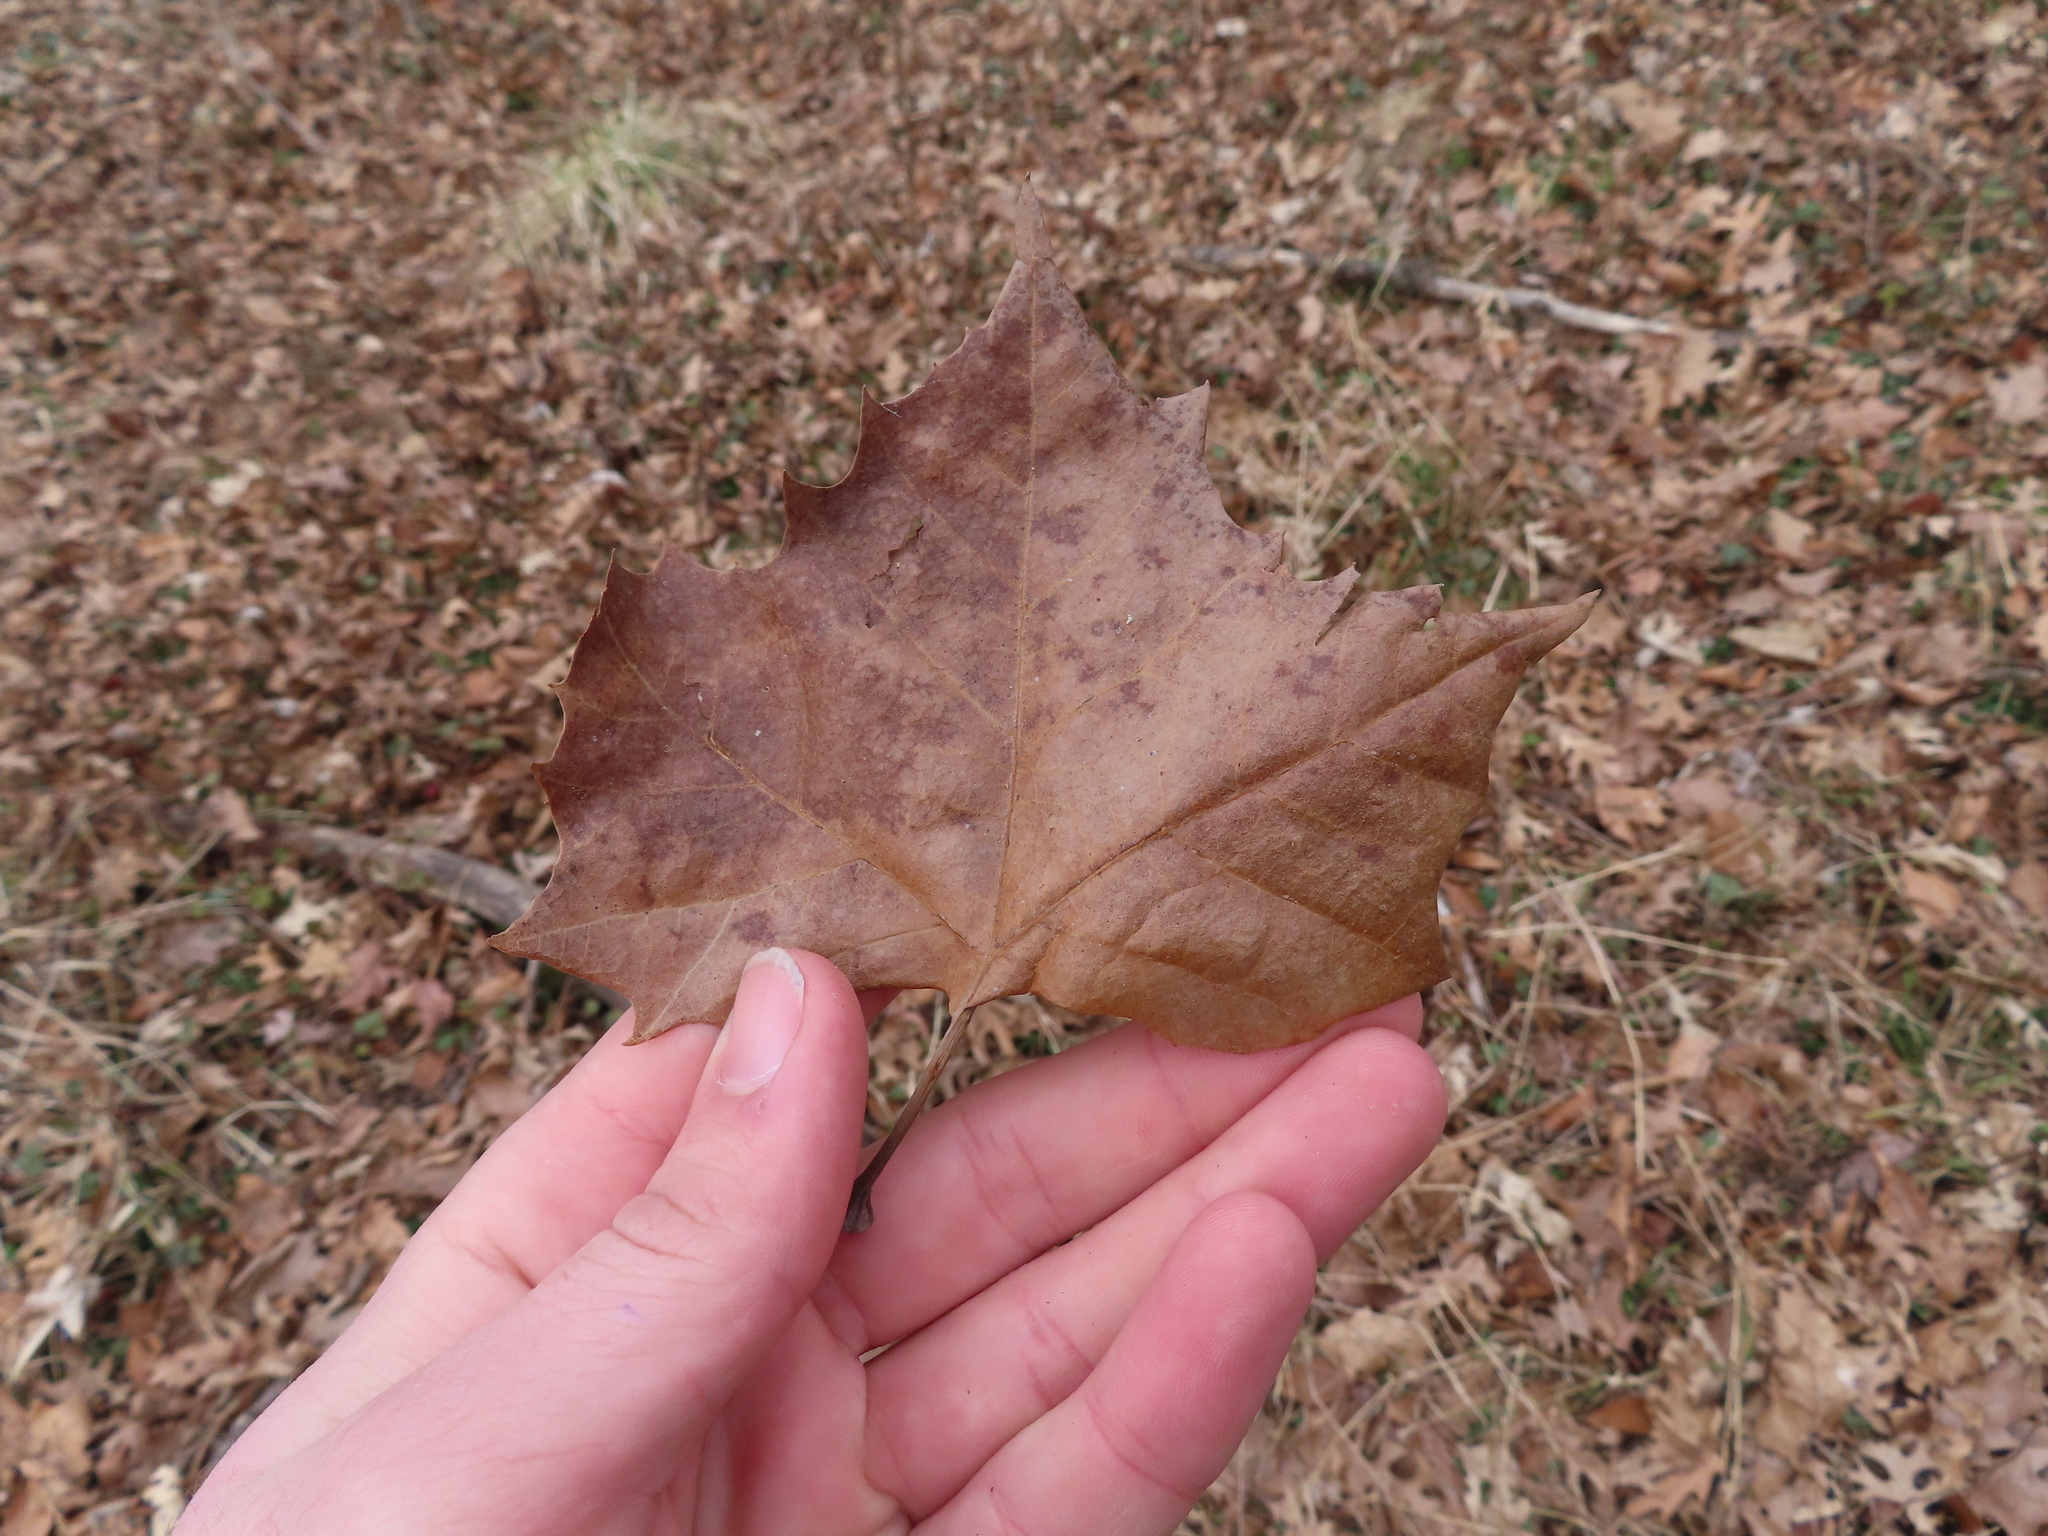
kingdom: Plantae
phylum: Tracheophyta
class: Magnoliopsida
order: Proteales
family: Platanaceae
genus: Platanus
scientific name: Platanus occidentalis
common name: American sycamore
